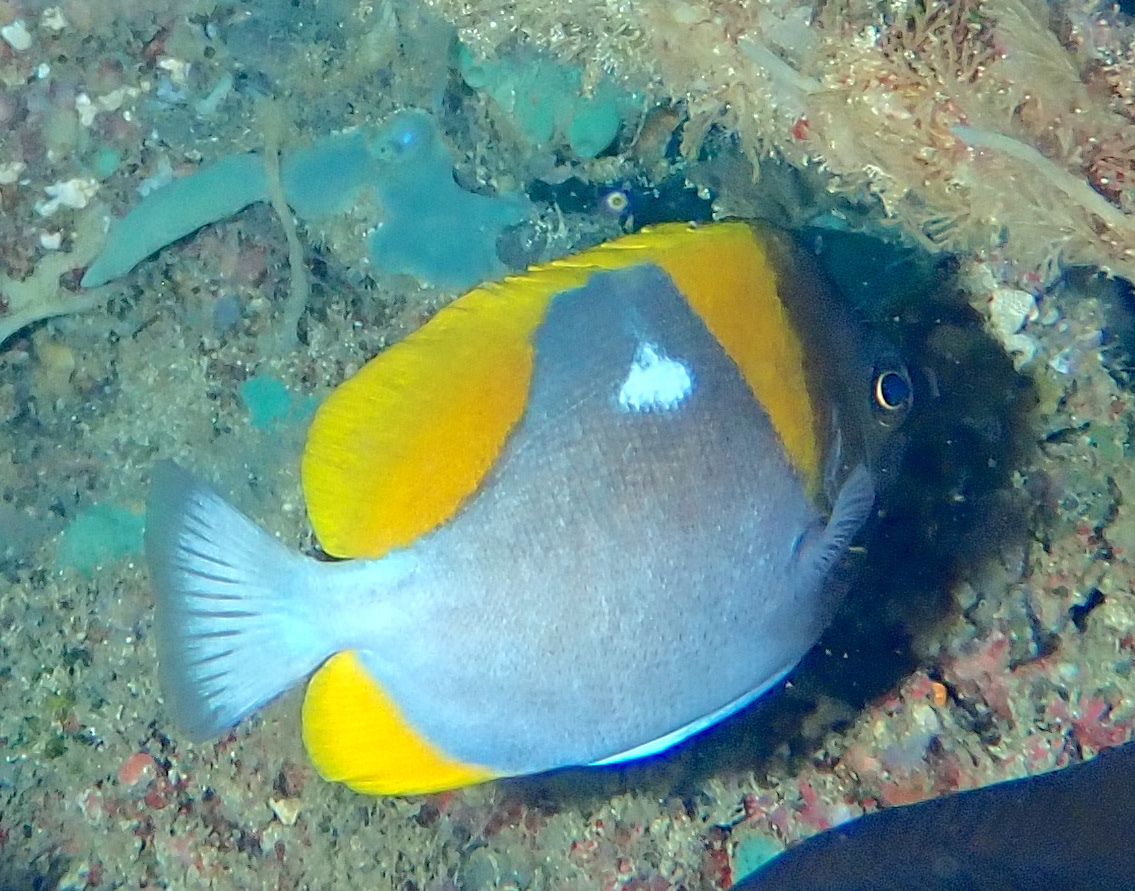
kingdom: Animalia
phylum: Chordata
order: Perciformes
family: Chaetodontidae
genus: Hemitaurichthys
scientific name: Hemitaurichthys polylepis
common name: Brushytoothed butterflyfish
